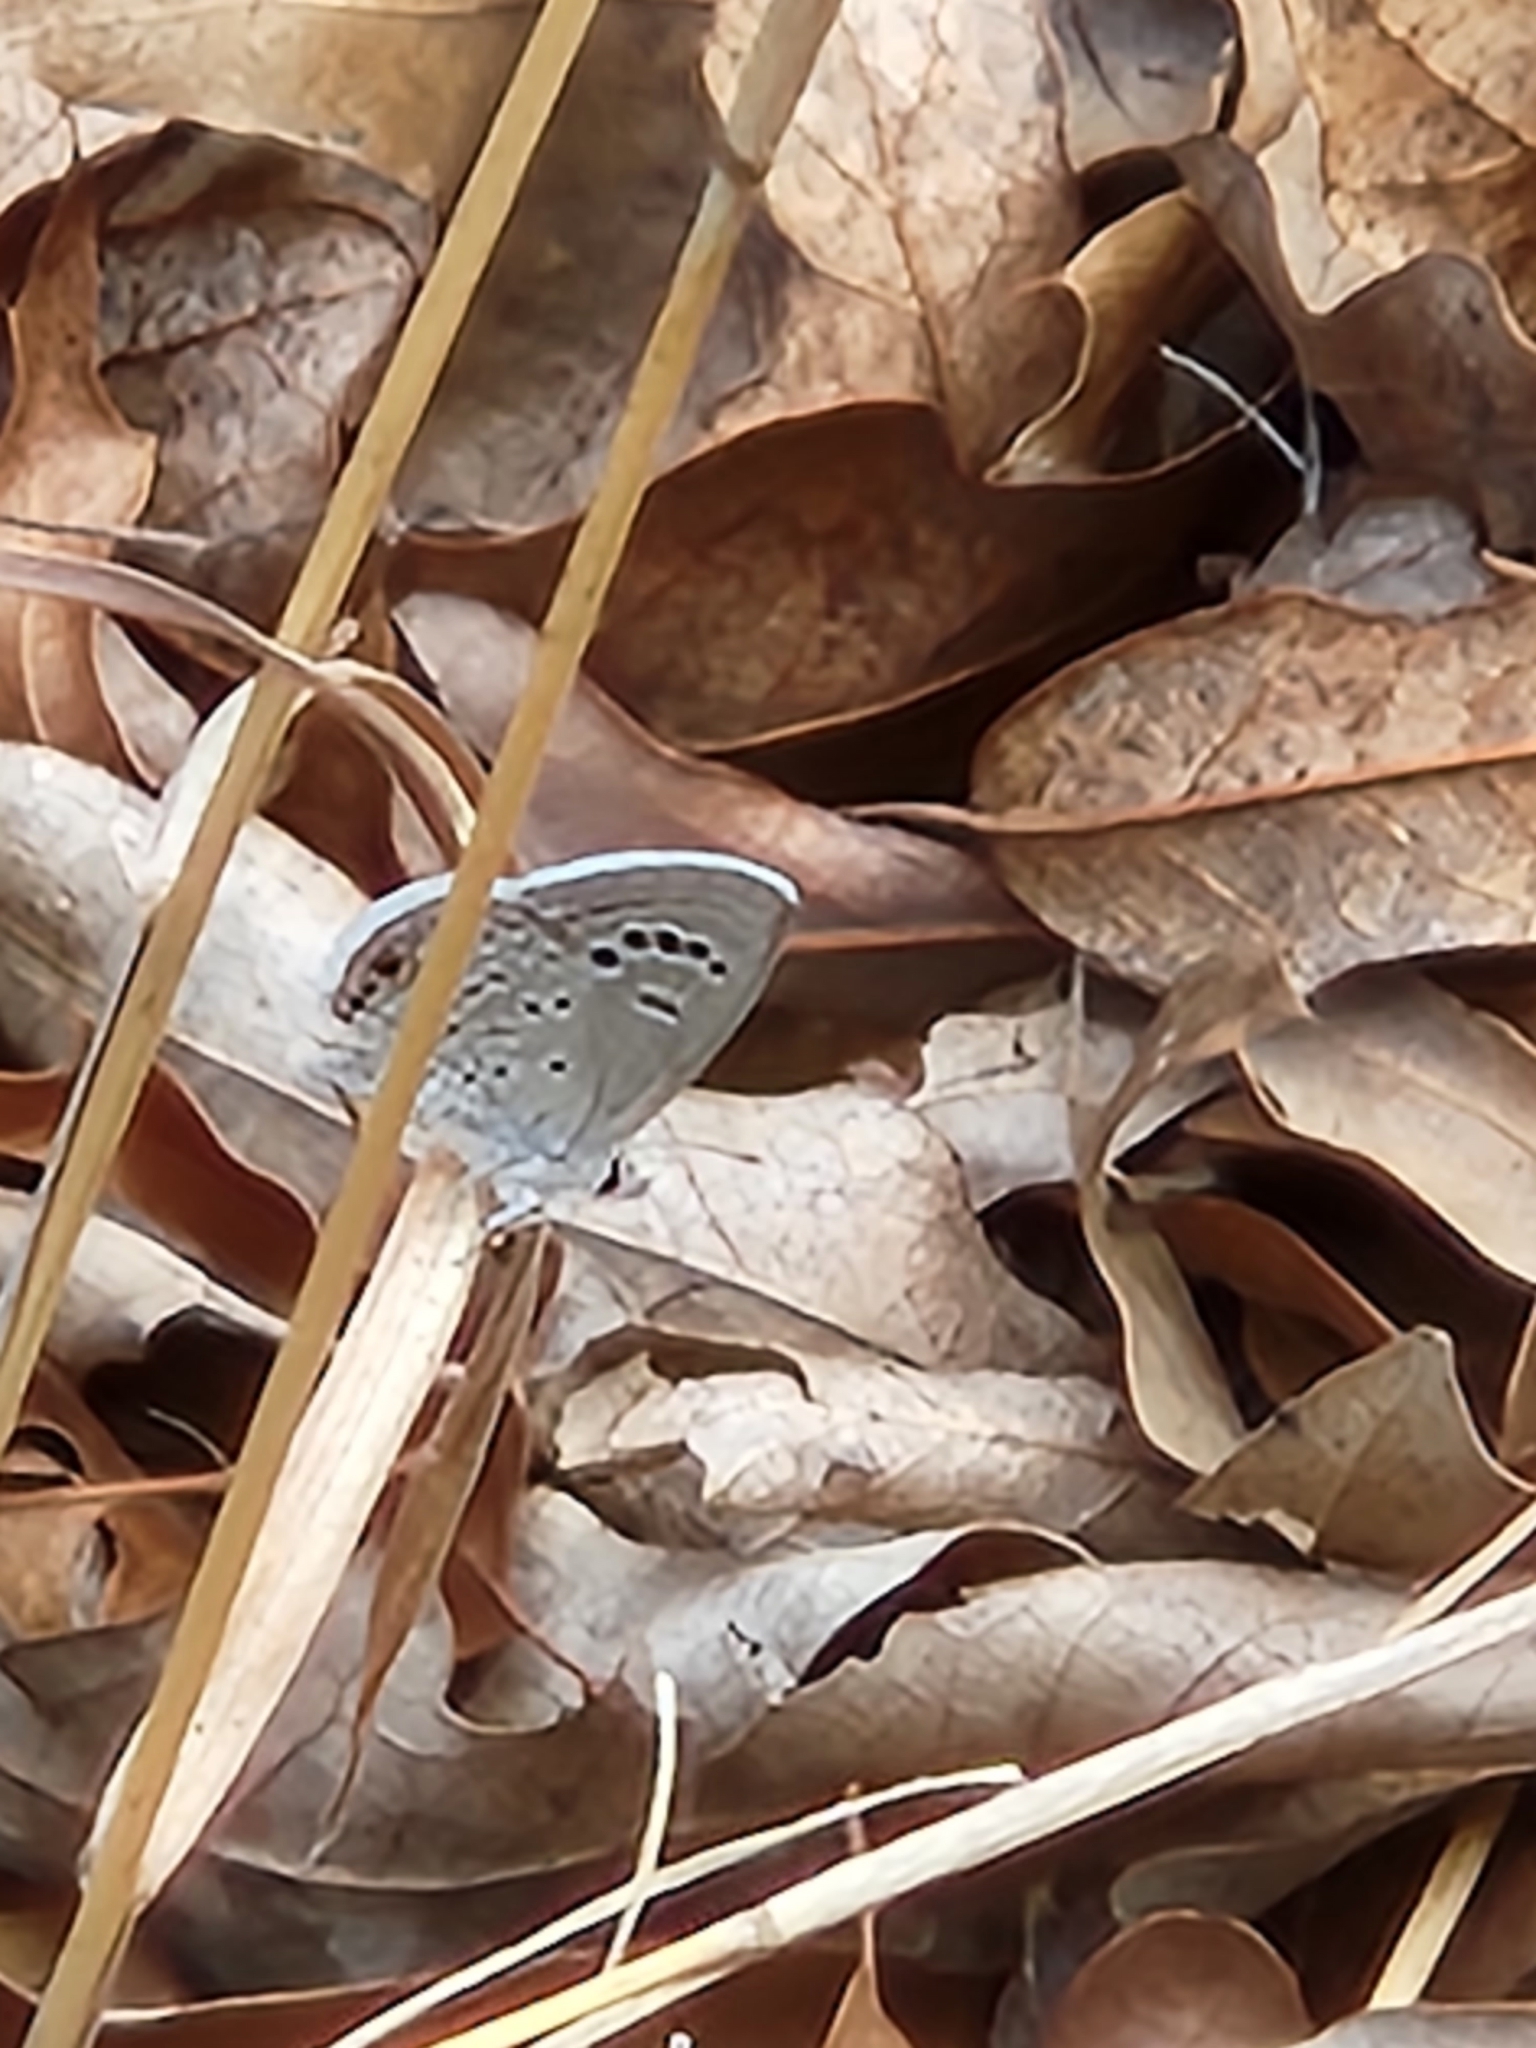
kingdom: Animalia
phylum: Arthropoda
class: Insecta
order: Lepidoptera
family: Lycaenidae
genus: Echinargus
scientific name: Echinargus isola
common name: Reakirt's blue
